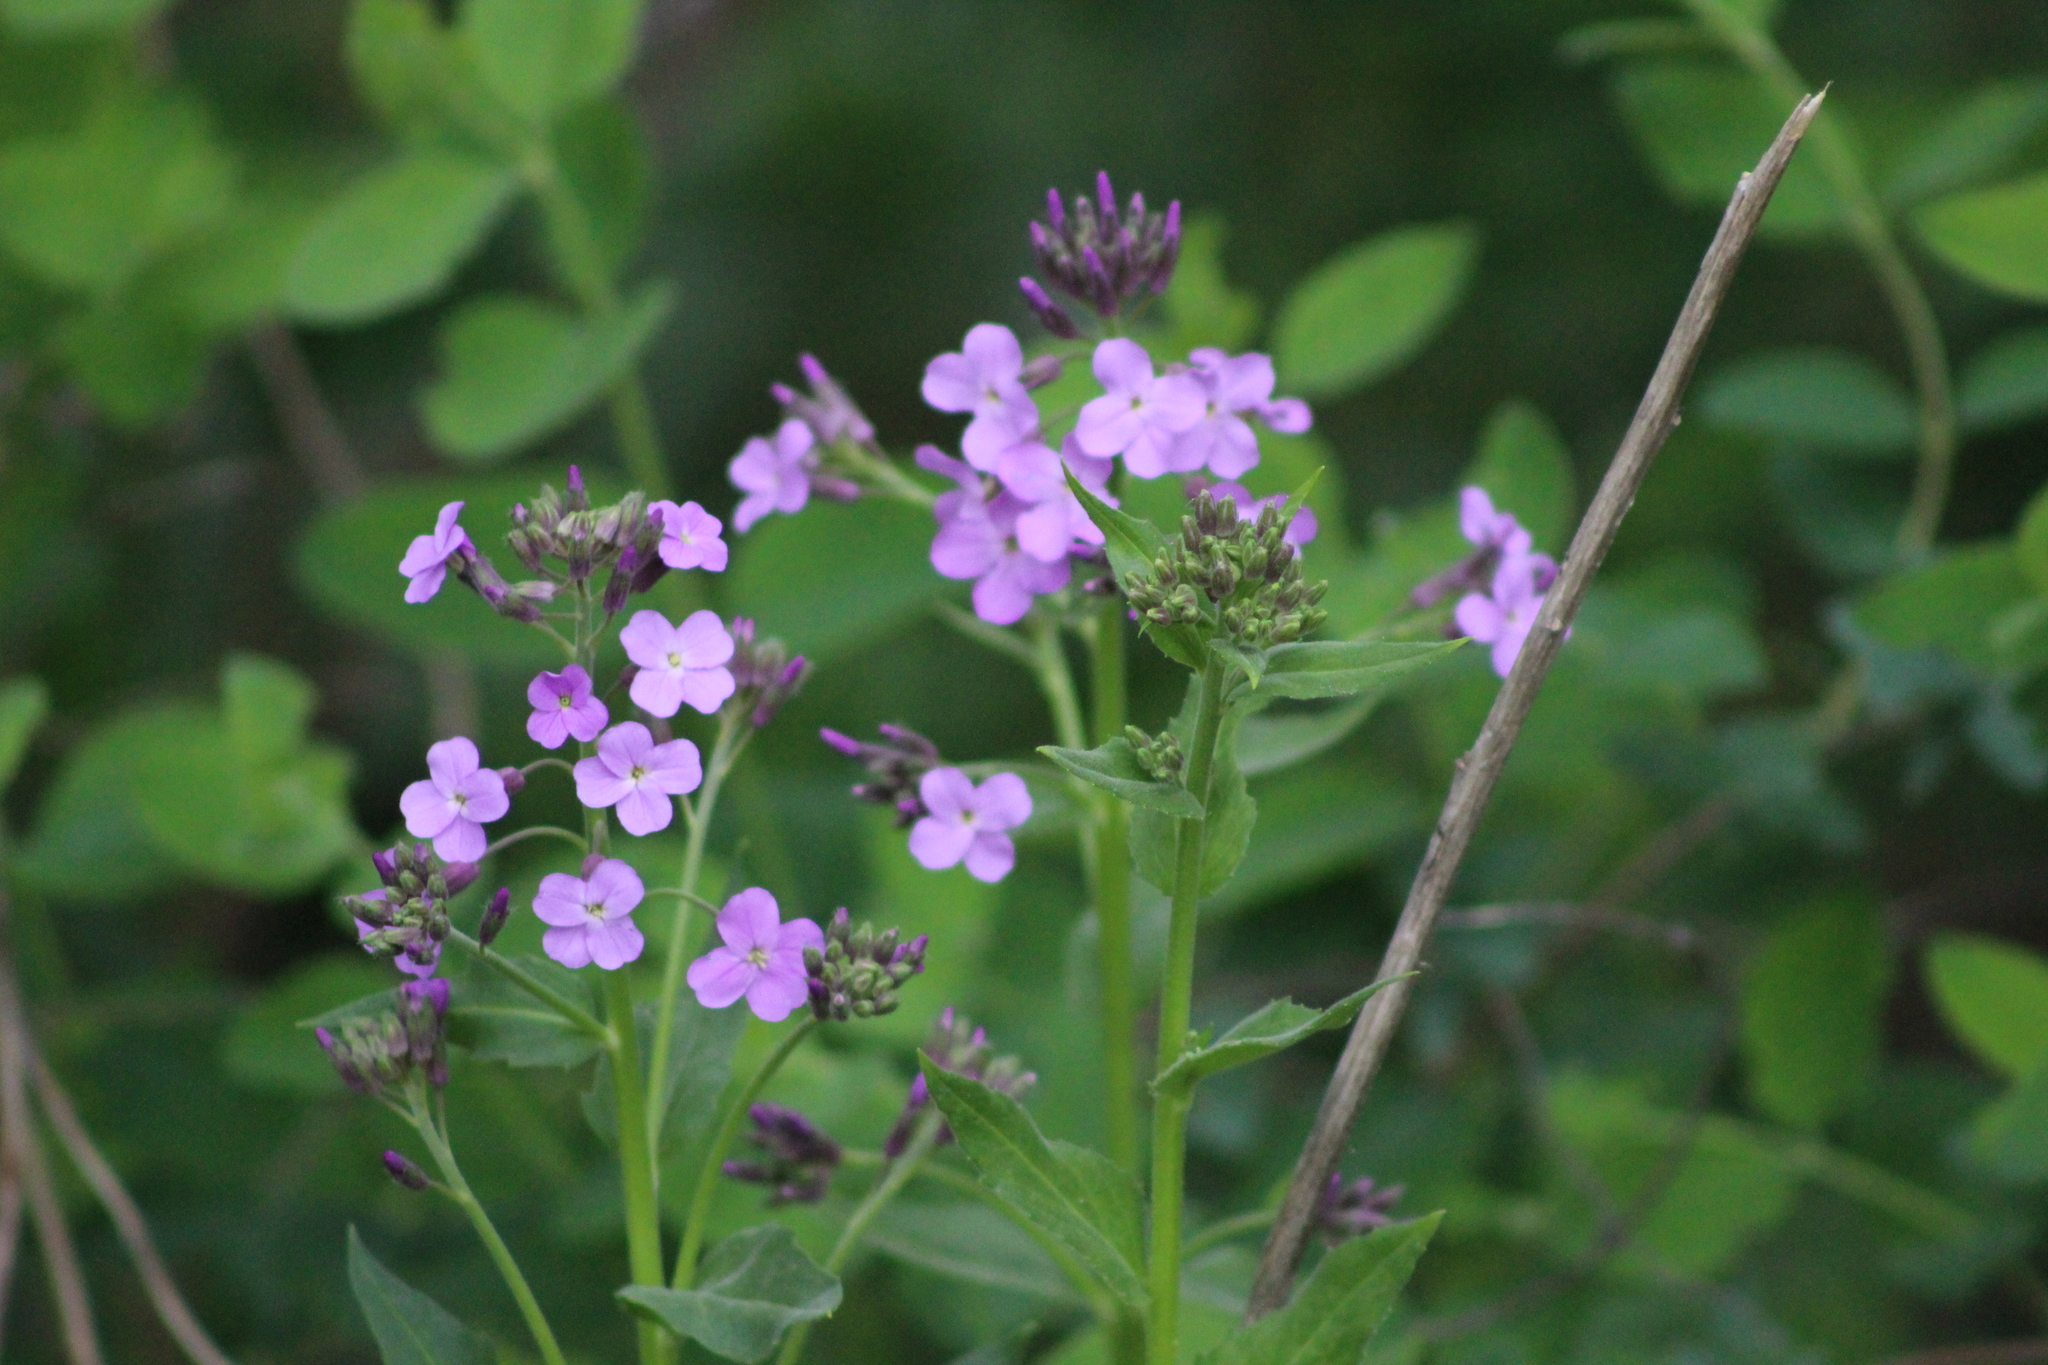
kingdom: Plantae
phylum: Tracheophyta
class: Magnoliopsida
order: Brassicales
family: Brassicaceae
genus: Hesperis
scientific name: Hesperis matronalis
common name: Dame's-violet
